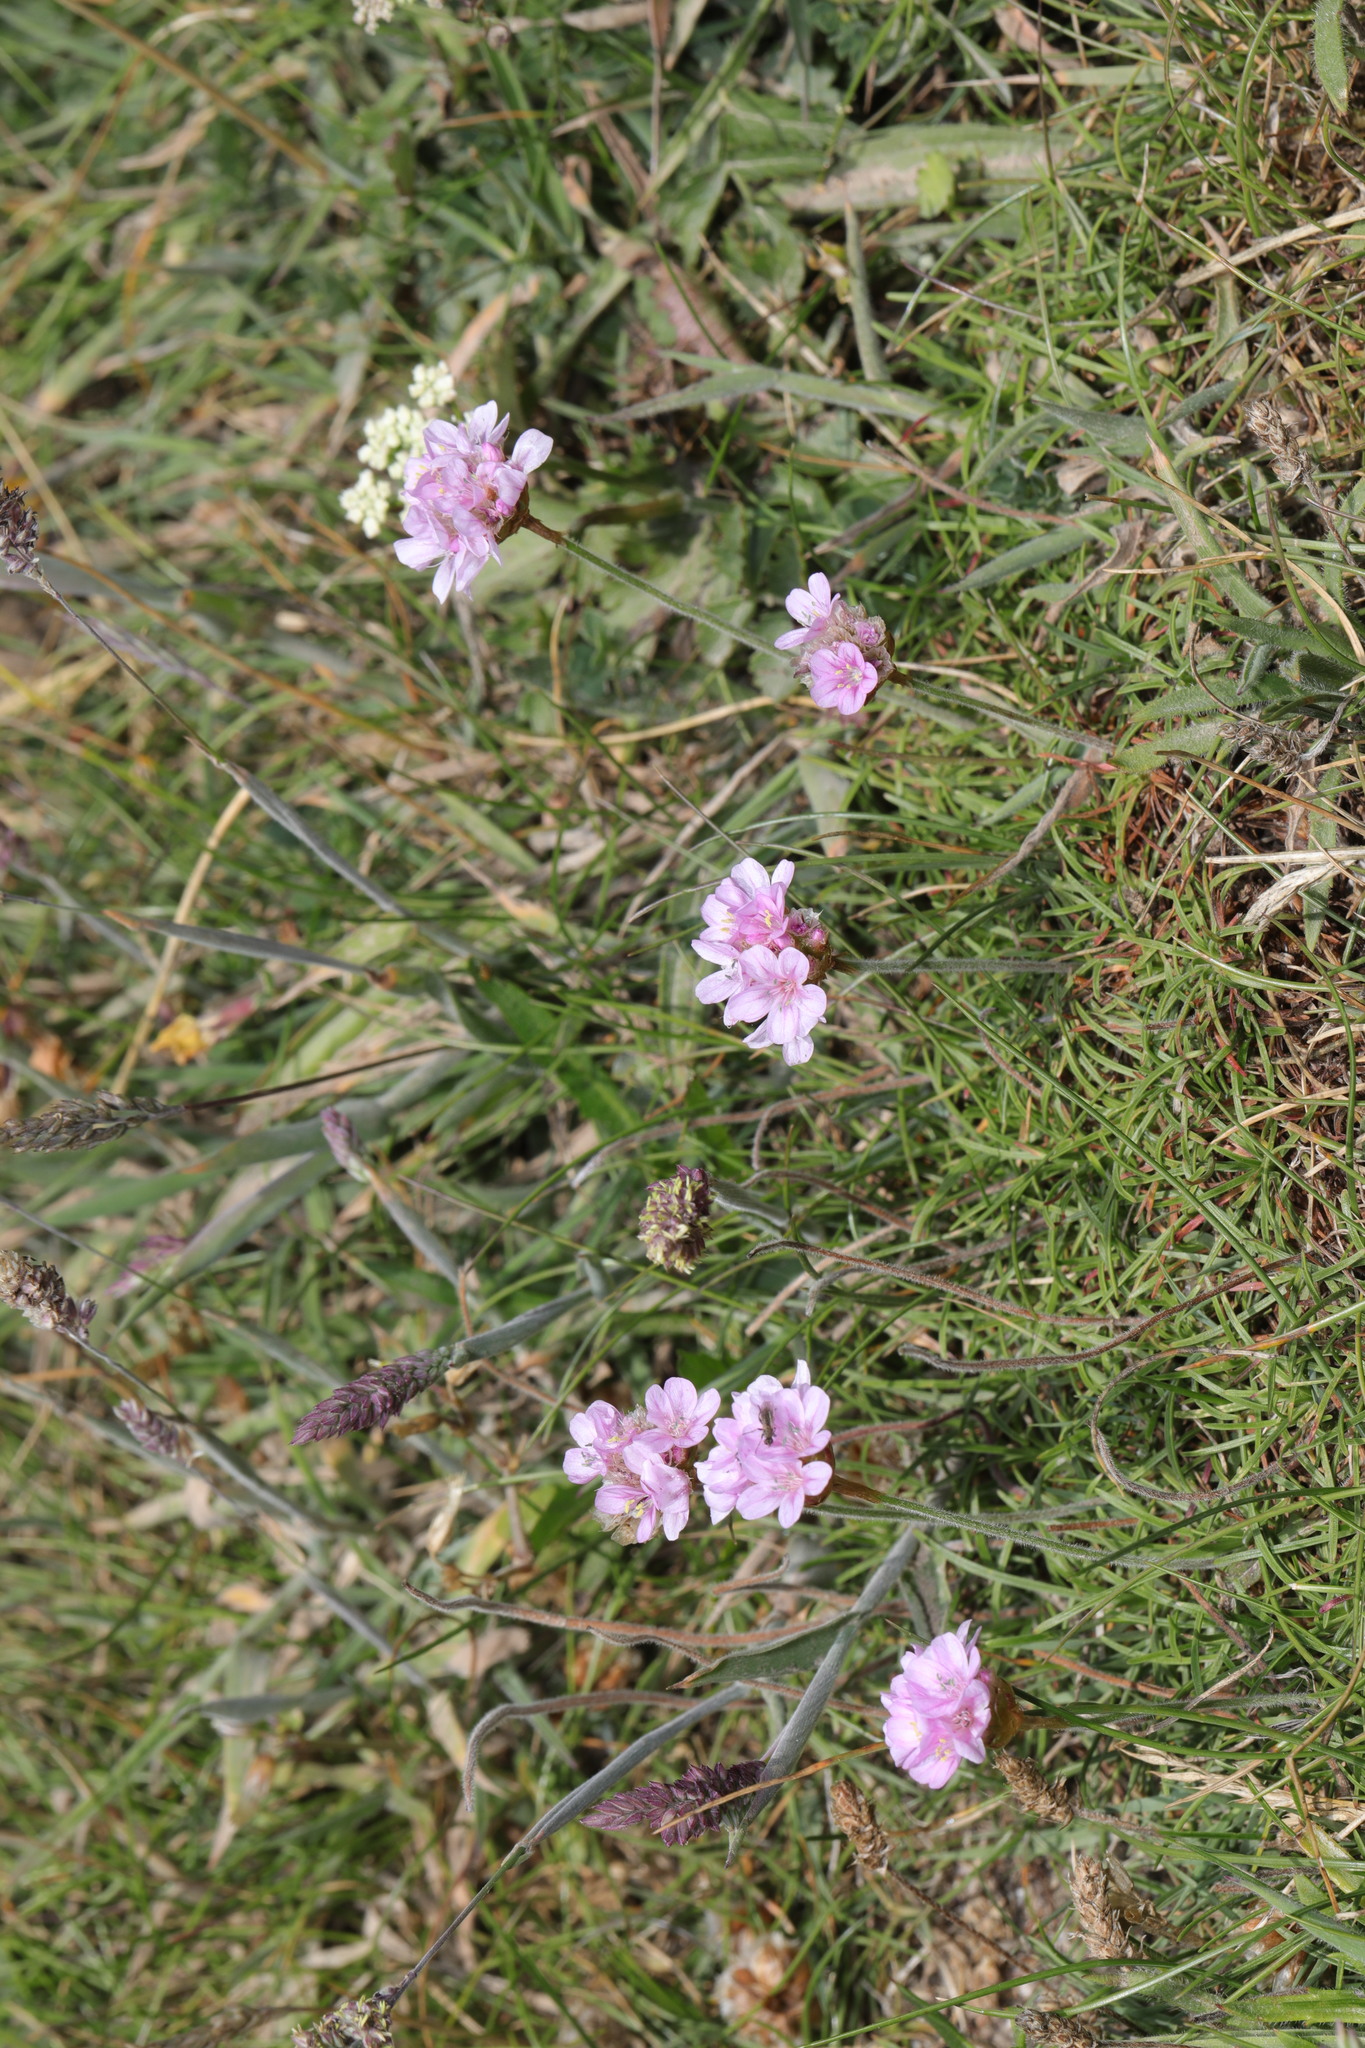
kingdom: Plantae
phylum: Tracheophyta
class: Magnoliopsida
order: Caryophyllales
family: Plumbaginaceae
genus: Armeria
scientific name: Armeria maritima
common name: Thrift
